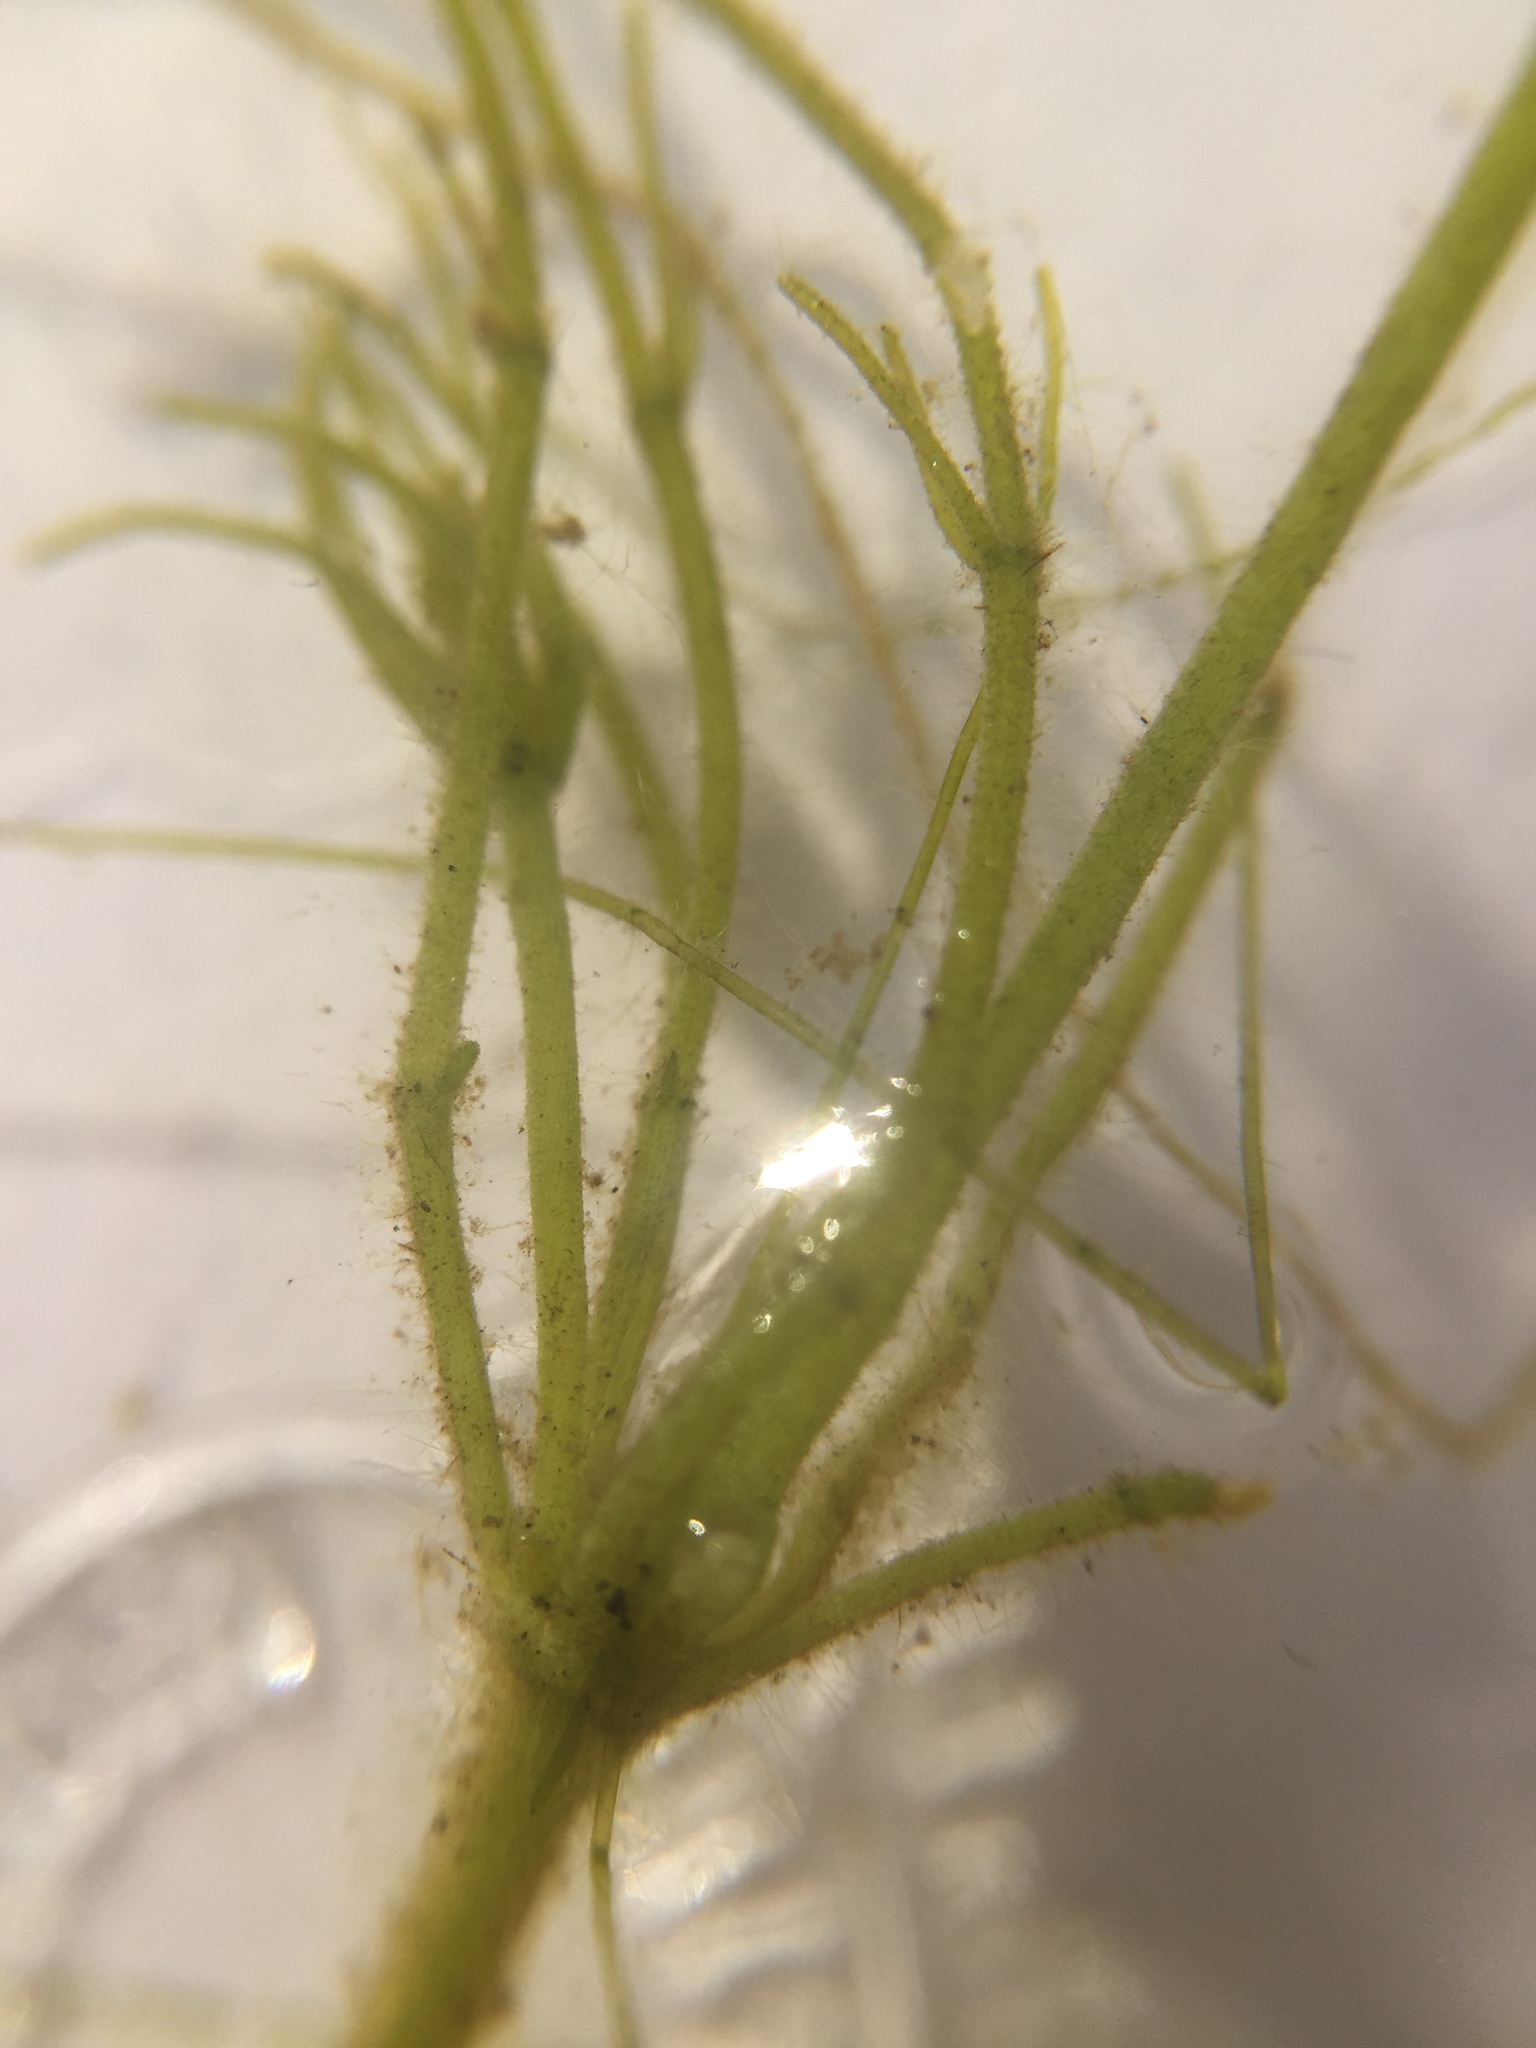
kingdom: Plantae
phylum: Charophyta
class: Charophyceae
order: Charales
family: Characeae
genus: Chara
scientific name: Chara vulgaris
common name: Common stonewort
